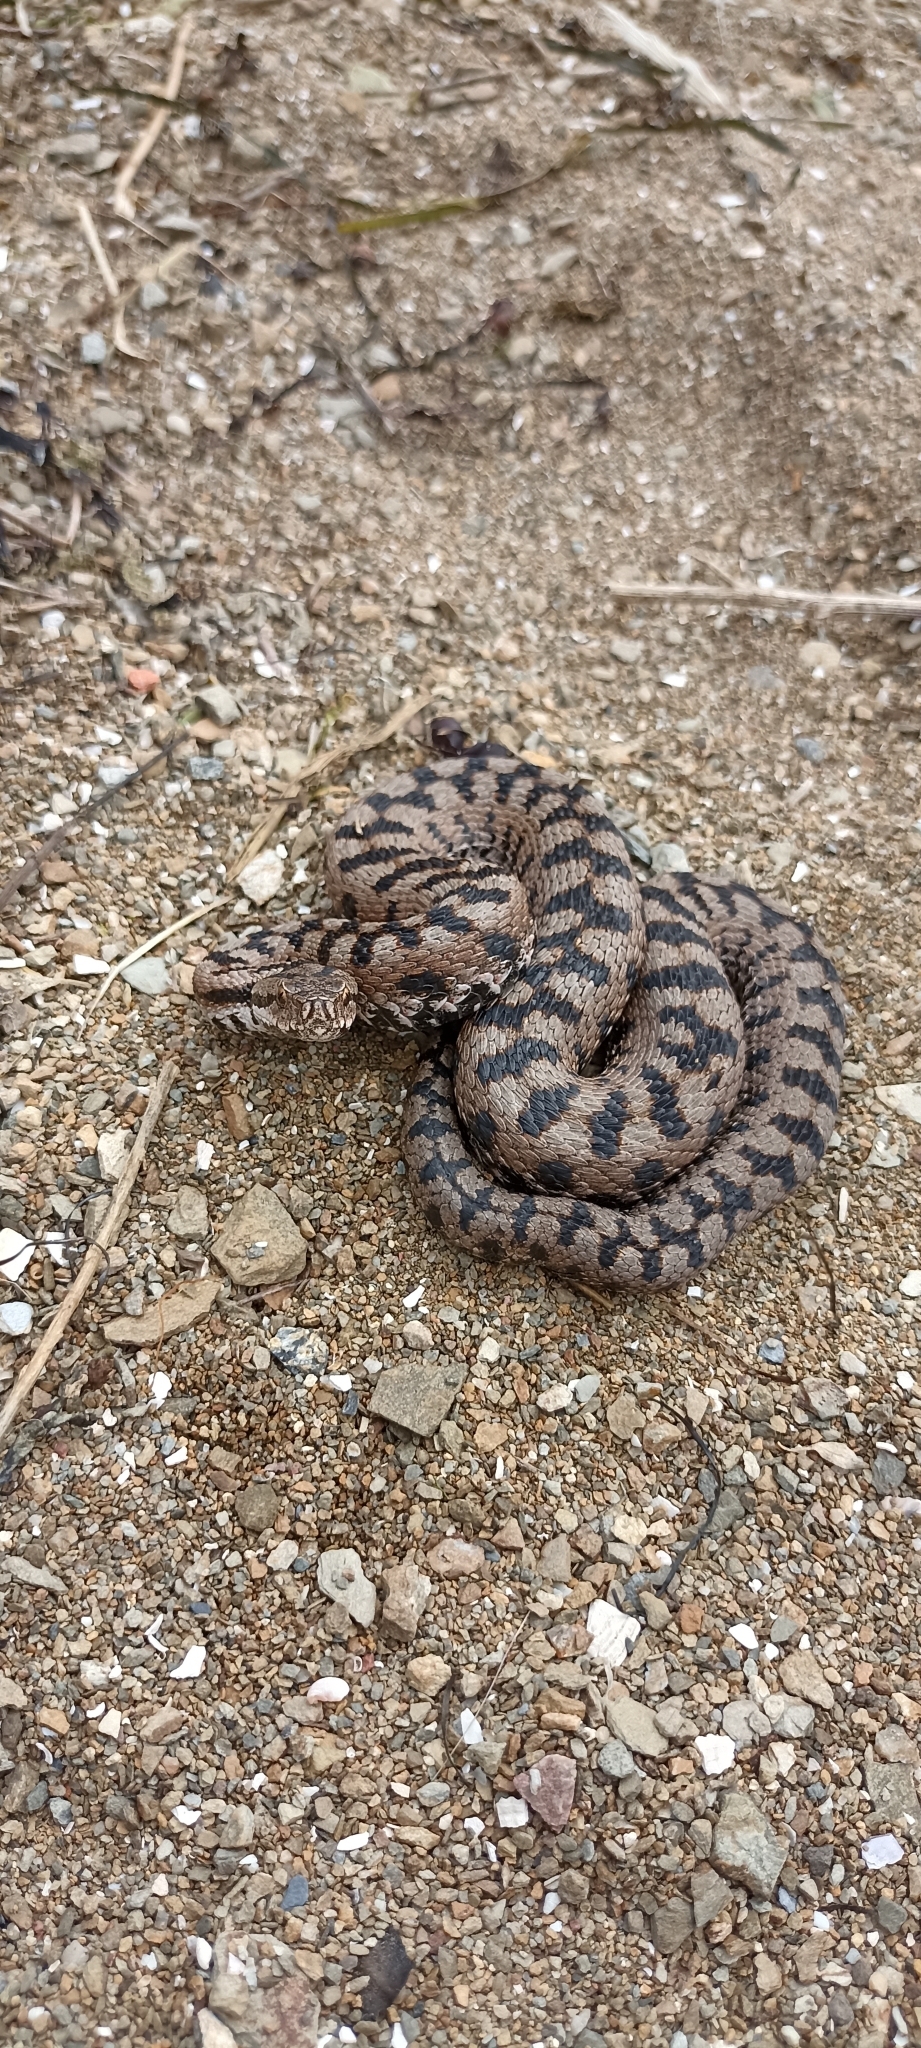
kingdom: Animalia
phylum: Chordata
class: Squamata
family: Viperidae
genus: Vipera
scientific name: Vipera aspis
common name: Asp viper
